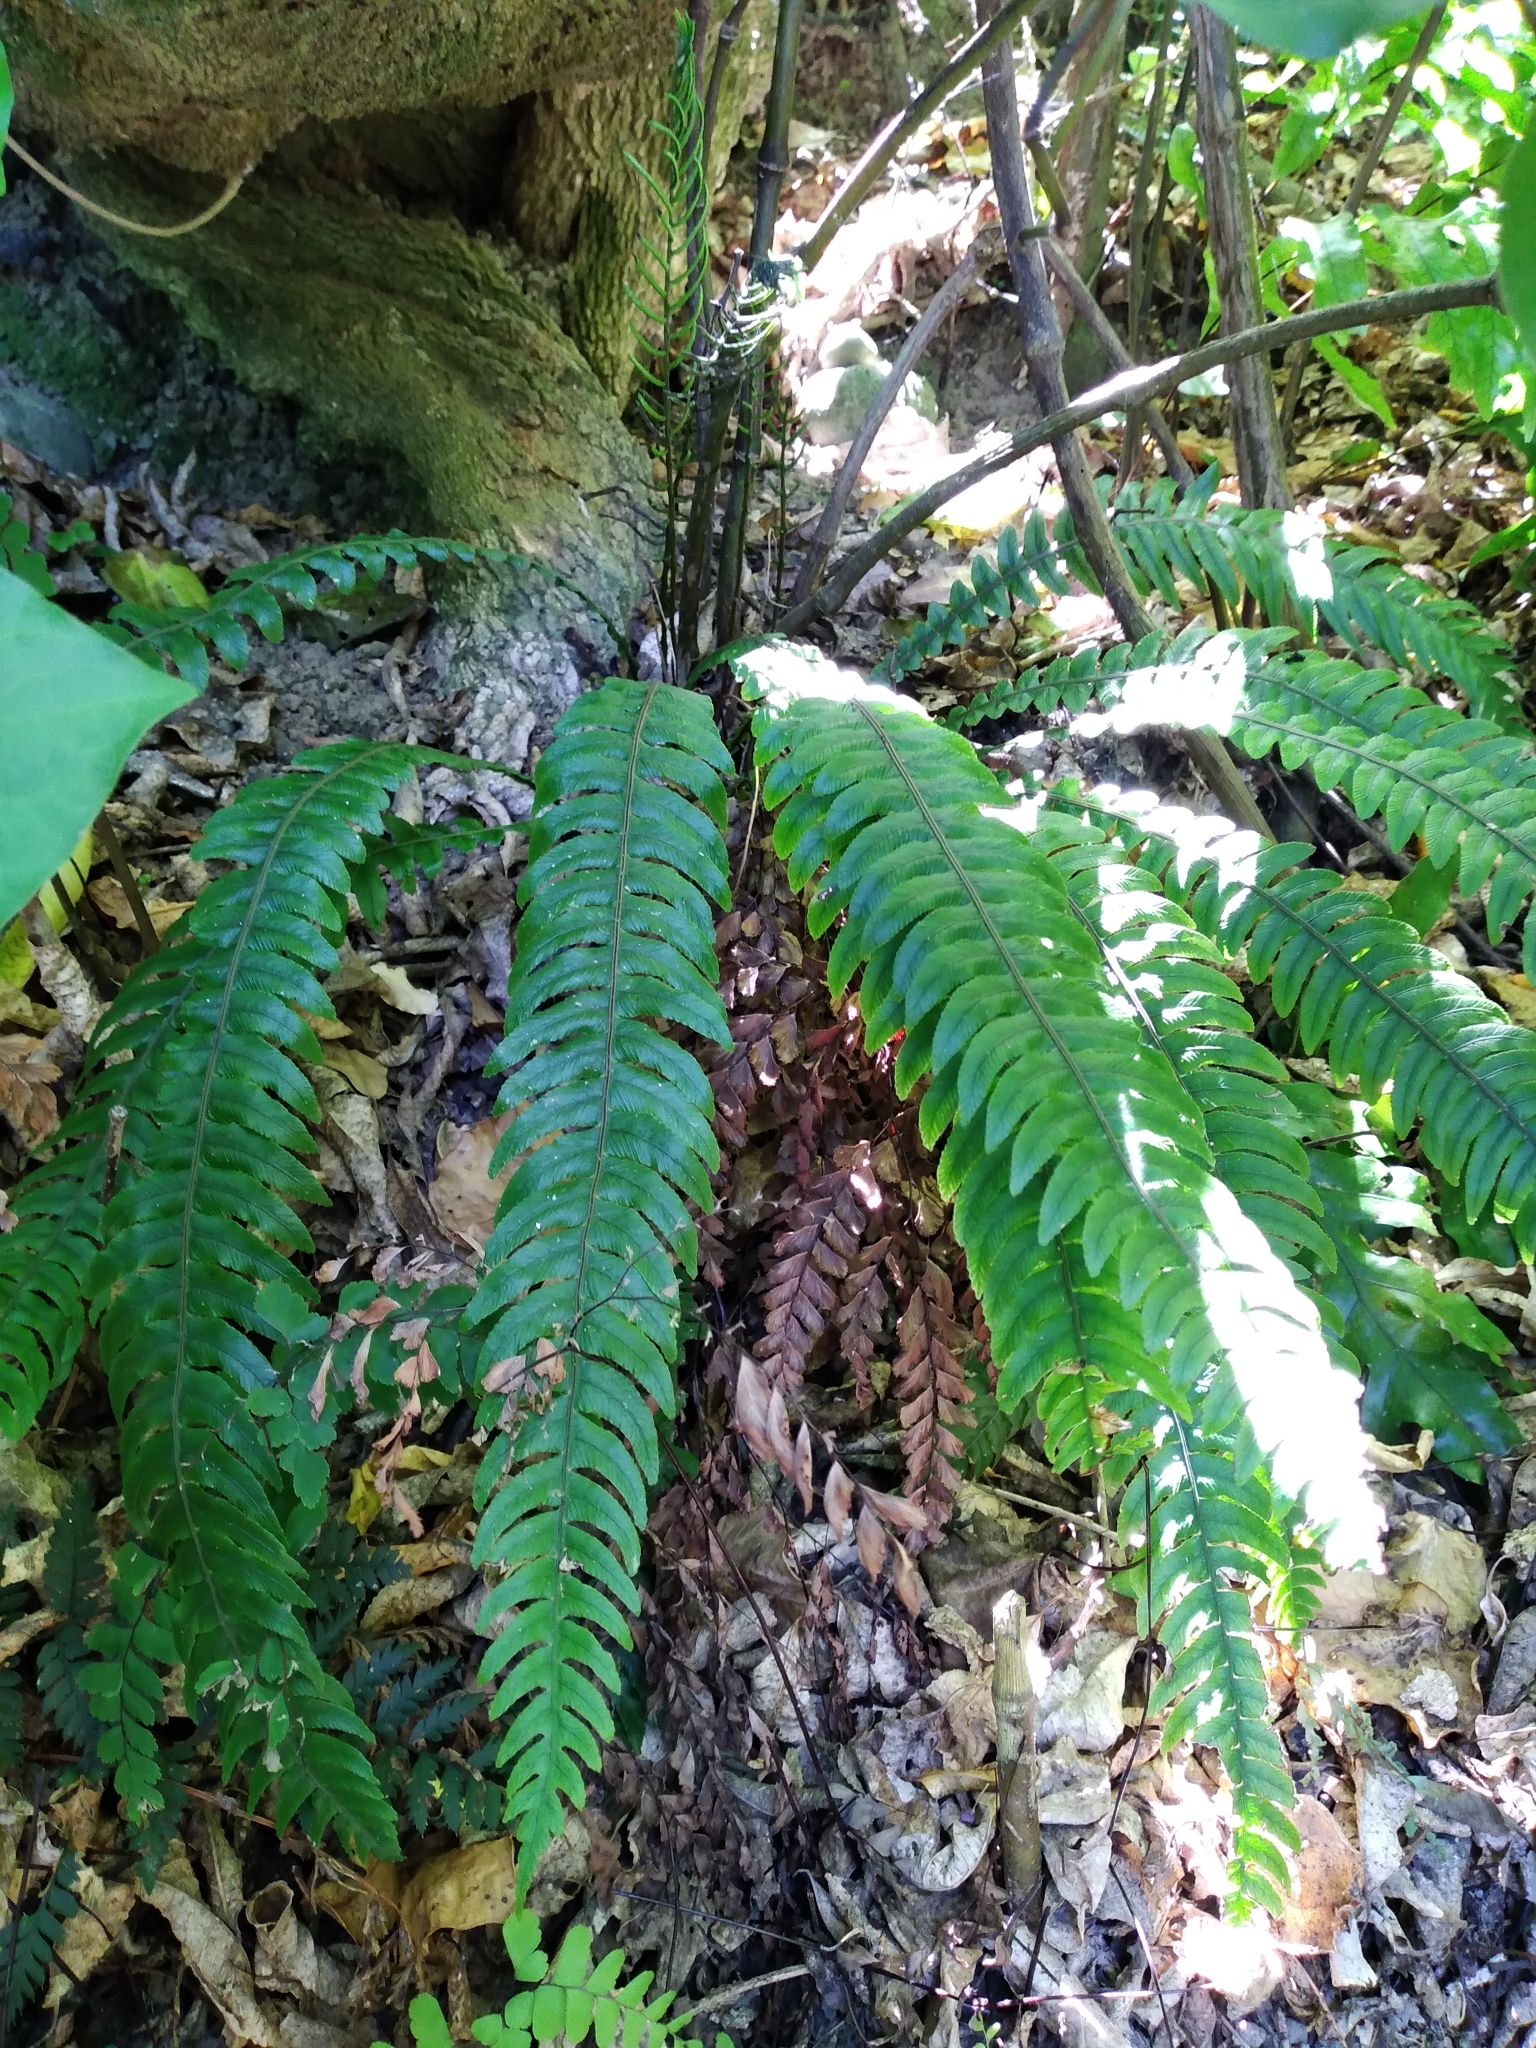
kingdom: Plantae
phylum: Tracheophyta
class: Polypodiopsida
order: Polypodiales
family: Blechnaceae
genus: Austroblechnum
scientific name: Austroblechnum lanceolatum
